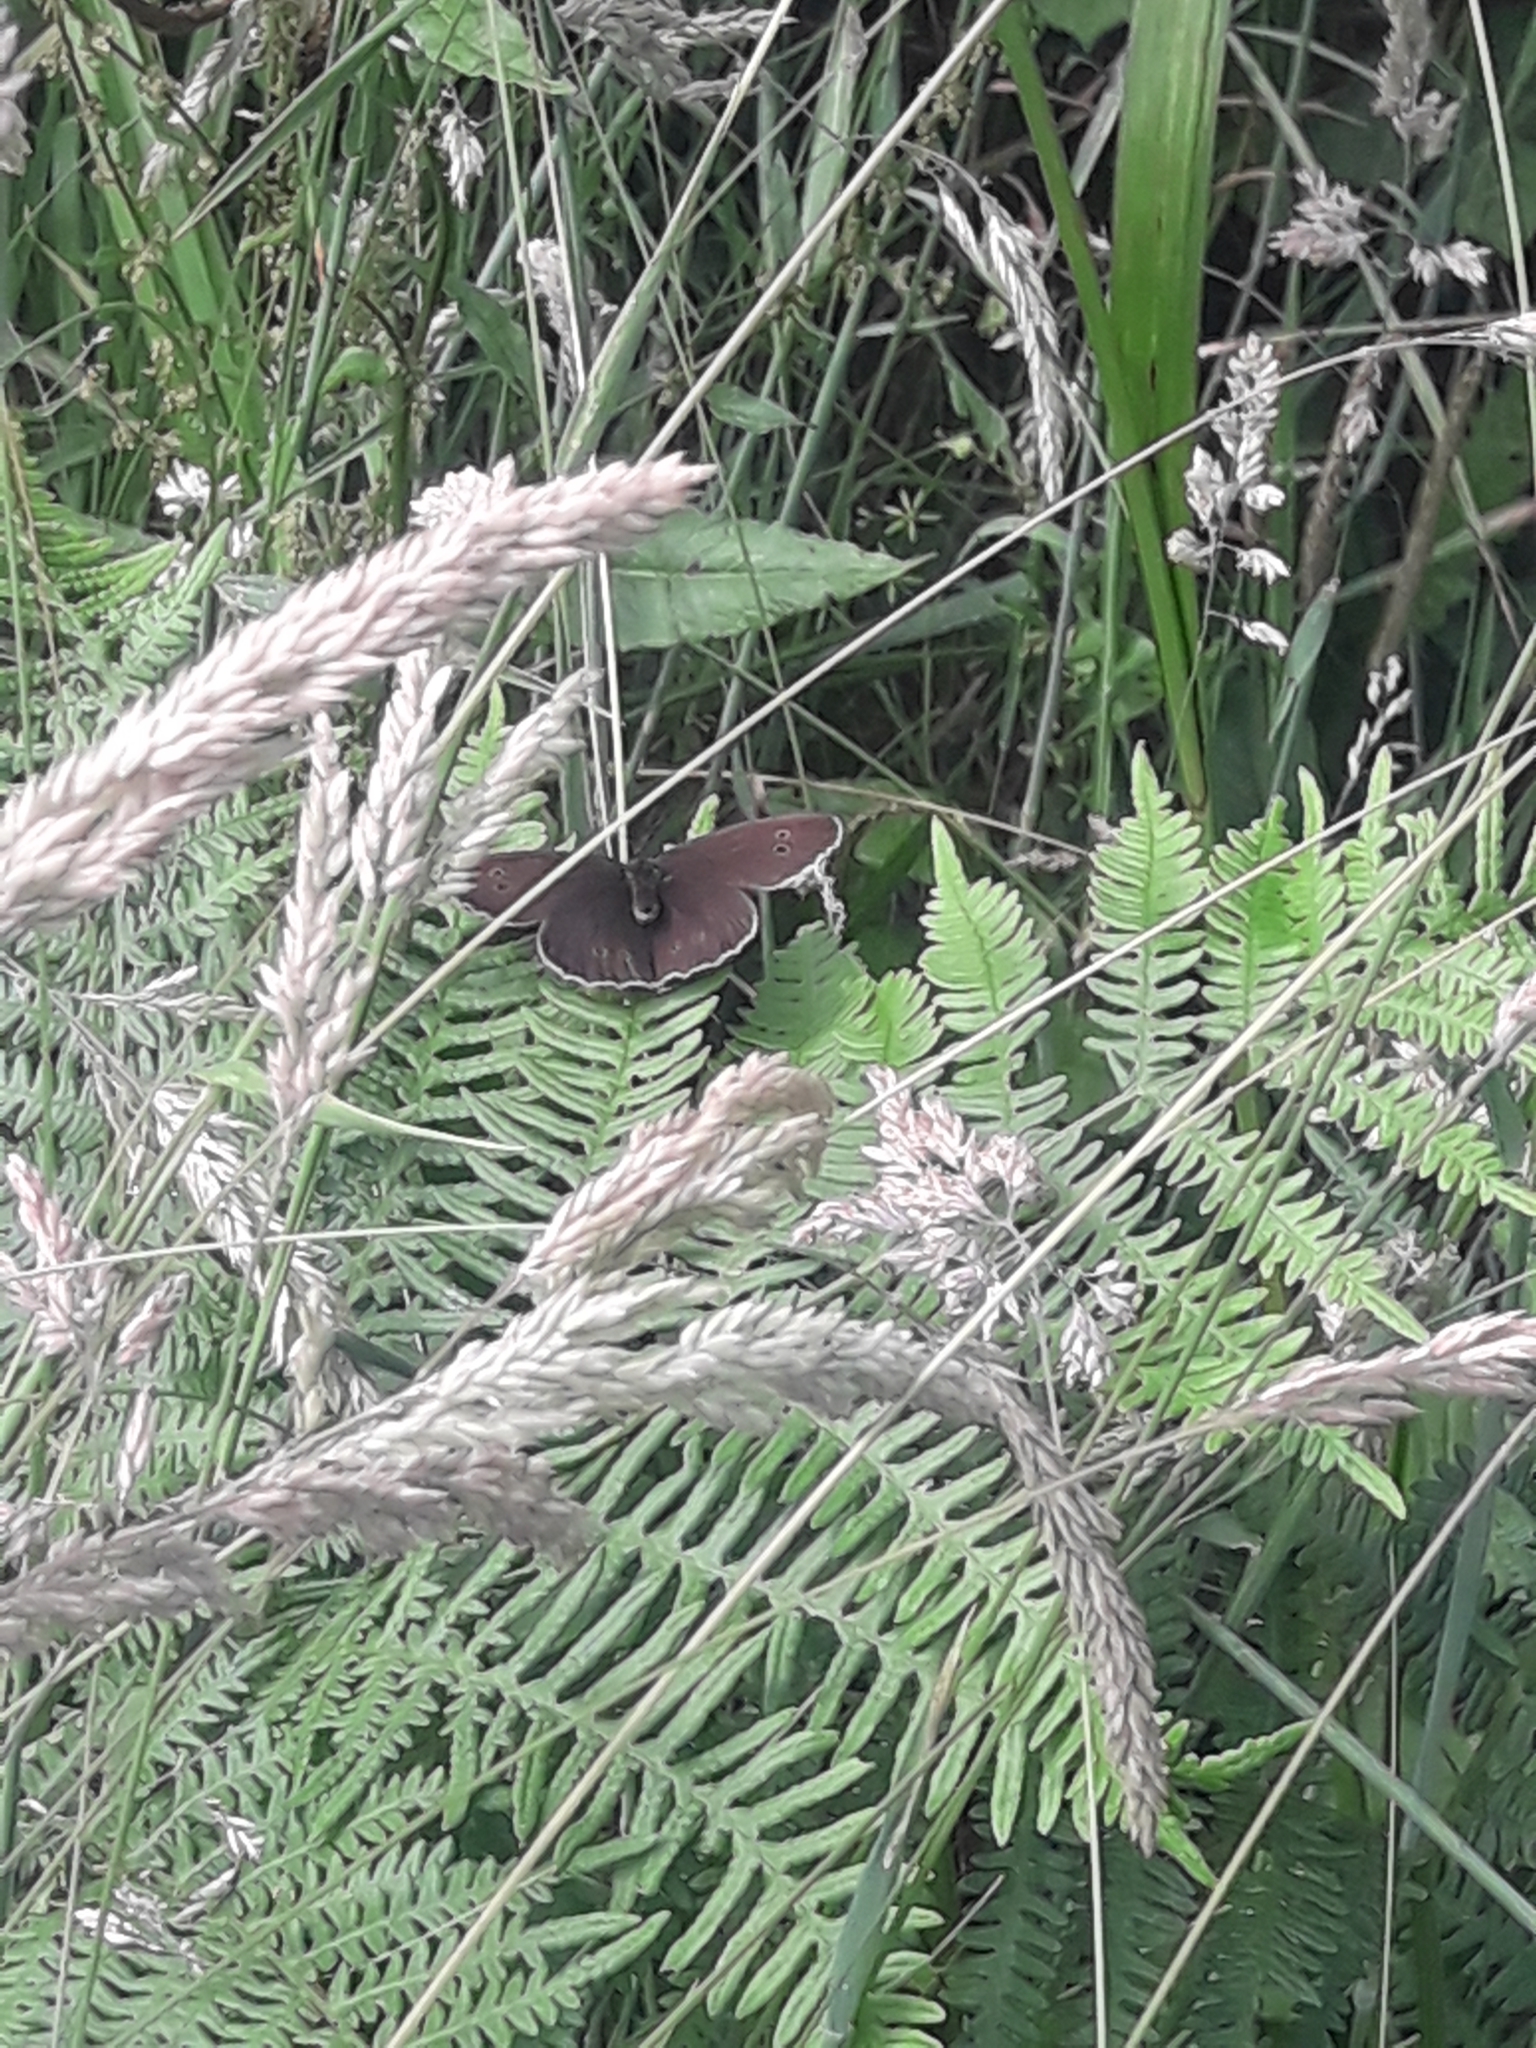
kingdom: Animalia
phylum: Arthropoda
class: Insecta
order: Lepidoptera
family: Nymphalidae
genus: Aphantopus
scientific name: Aphantopus hyperantus
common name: Ringlet
